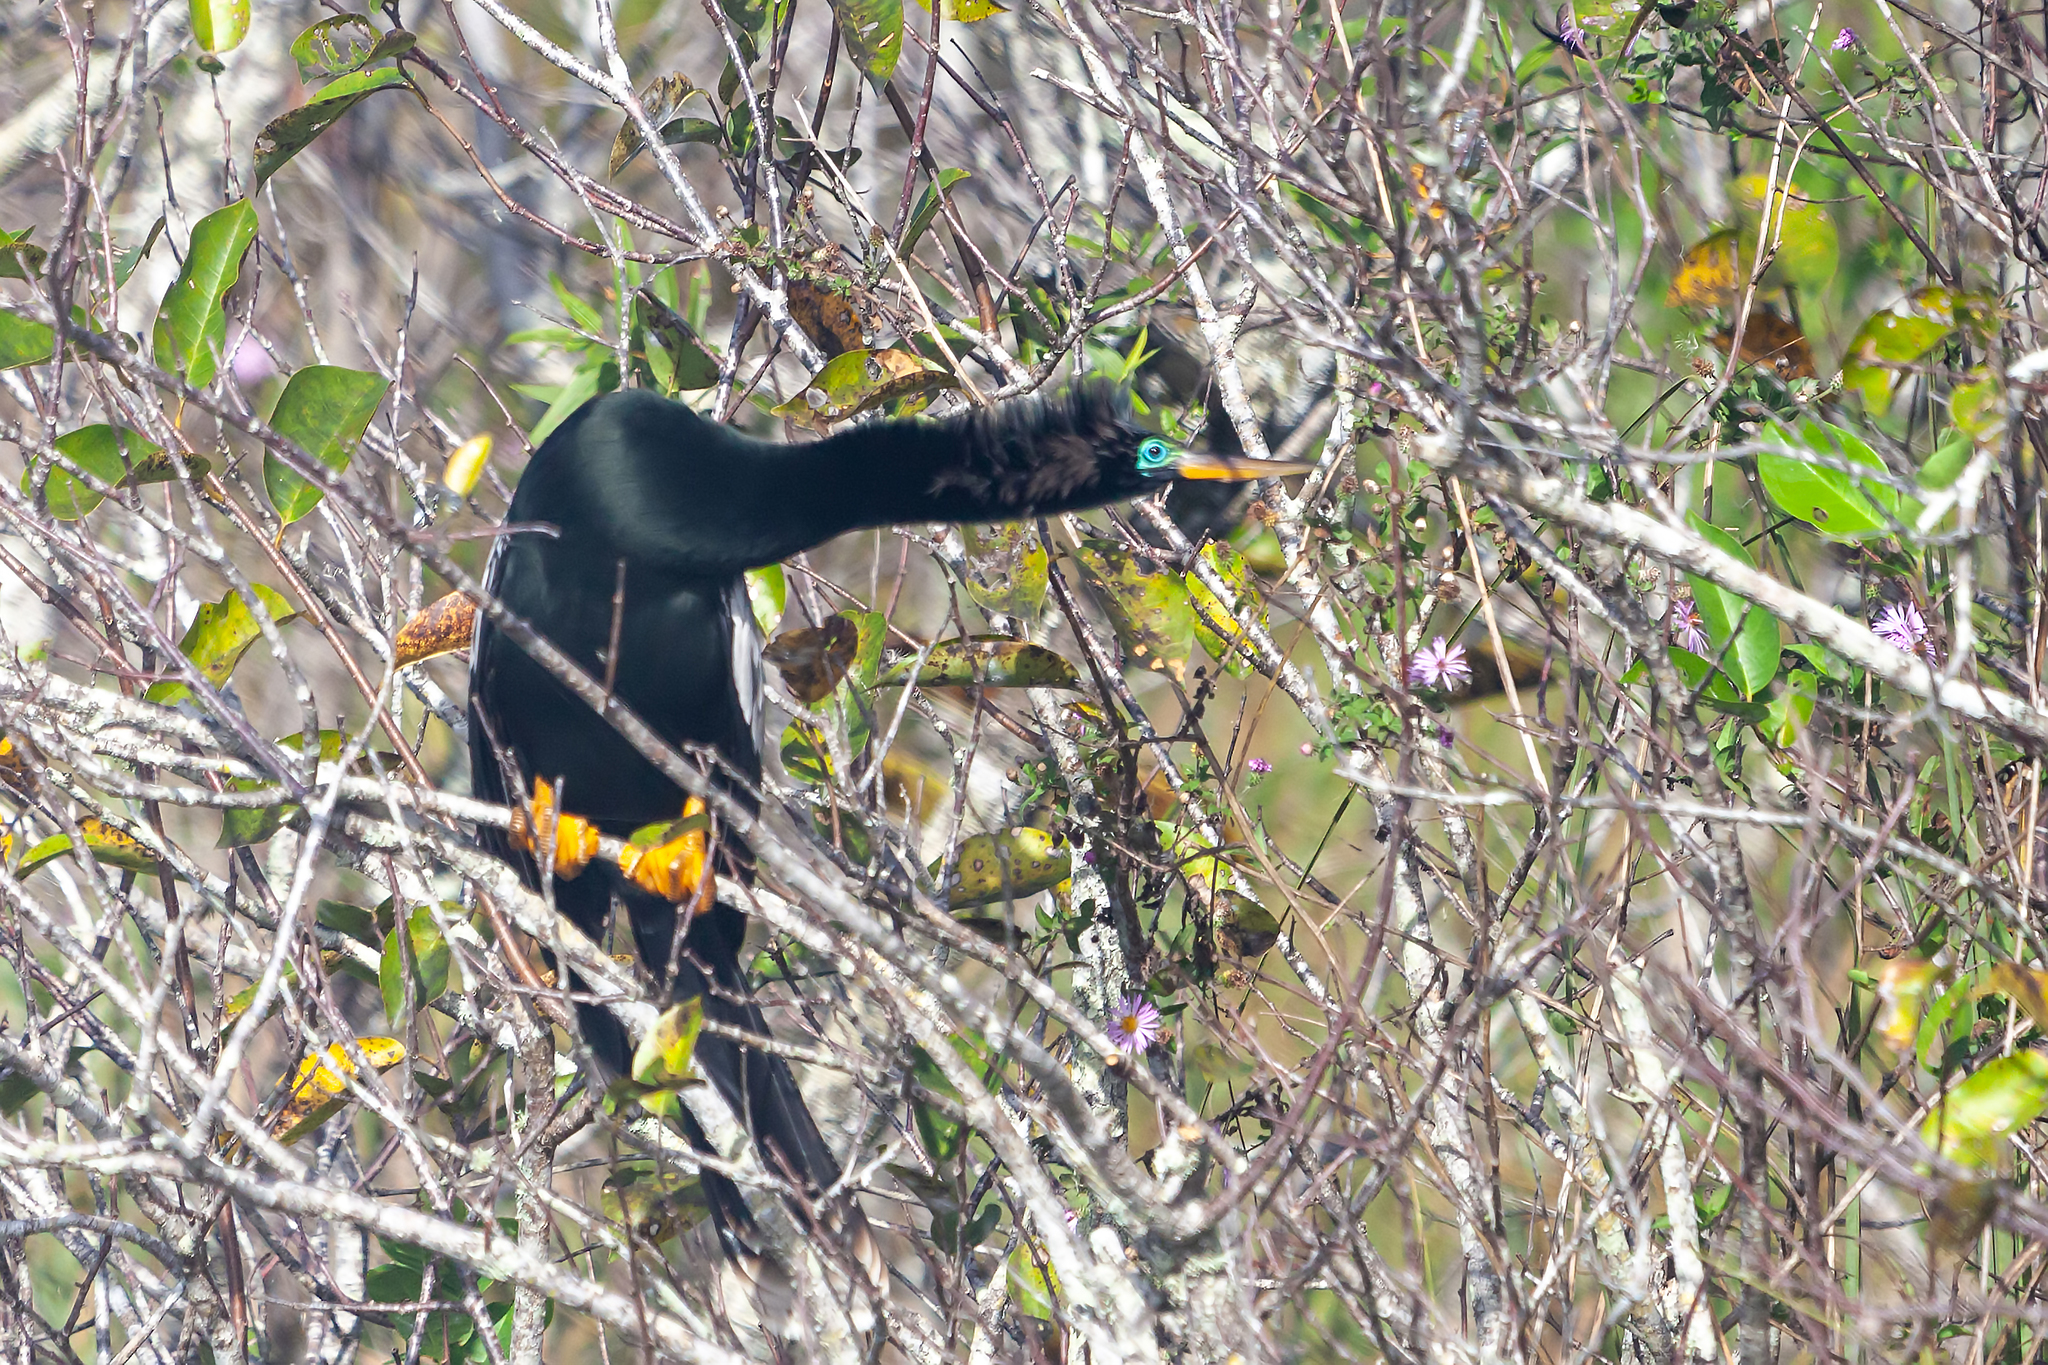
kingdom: Animalia
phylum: Chordata
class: Aves
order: Suliformes
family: Anhingidae
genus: Anhinga
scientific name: Anhinga anhinga
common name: Anhinga
